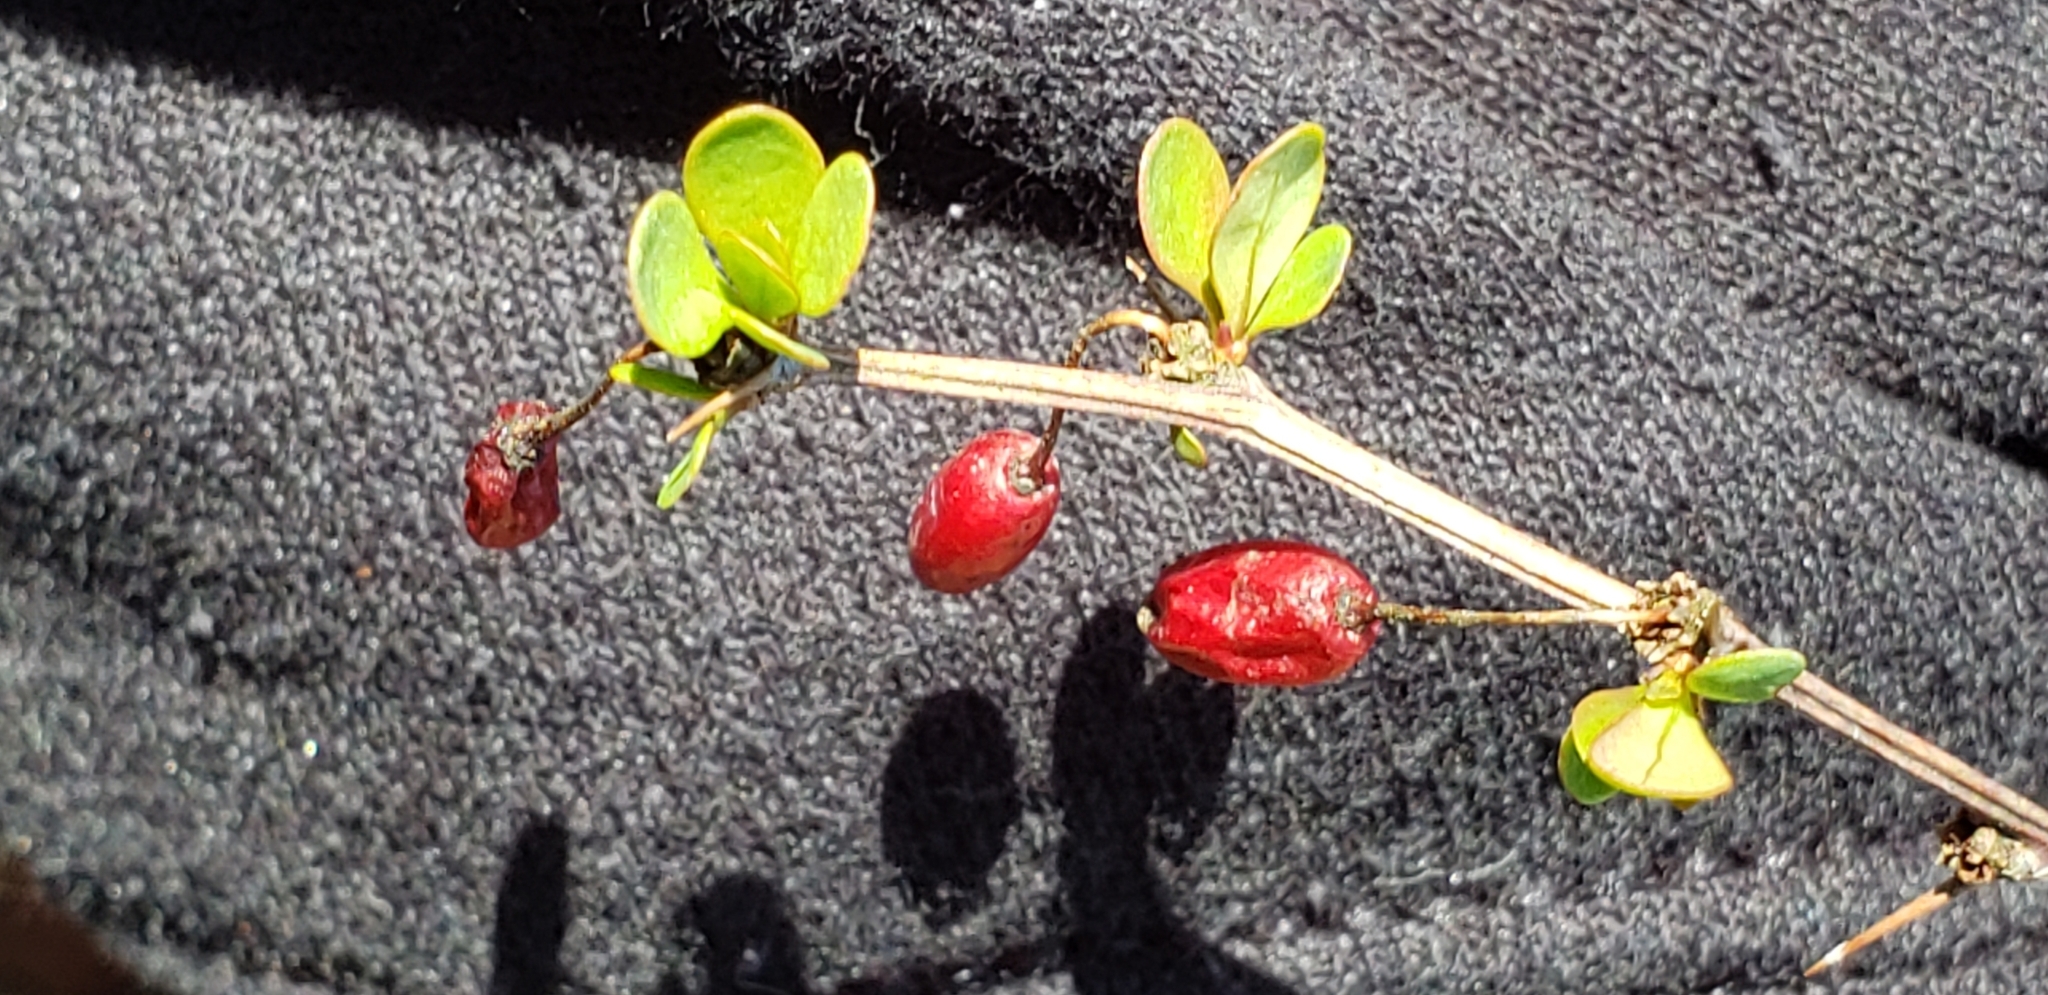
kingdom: Plantae
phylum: Tracheophyta
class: Magnoliopsida
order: Ranunculales
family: Berberidaceae
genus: Berberis
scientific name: Berberis thunbergii
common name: Japanese barberry
